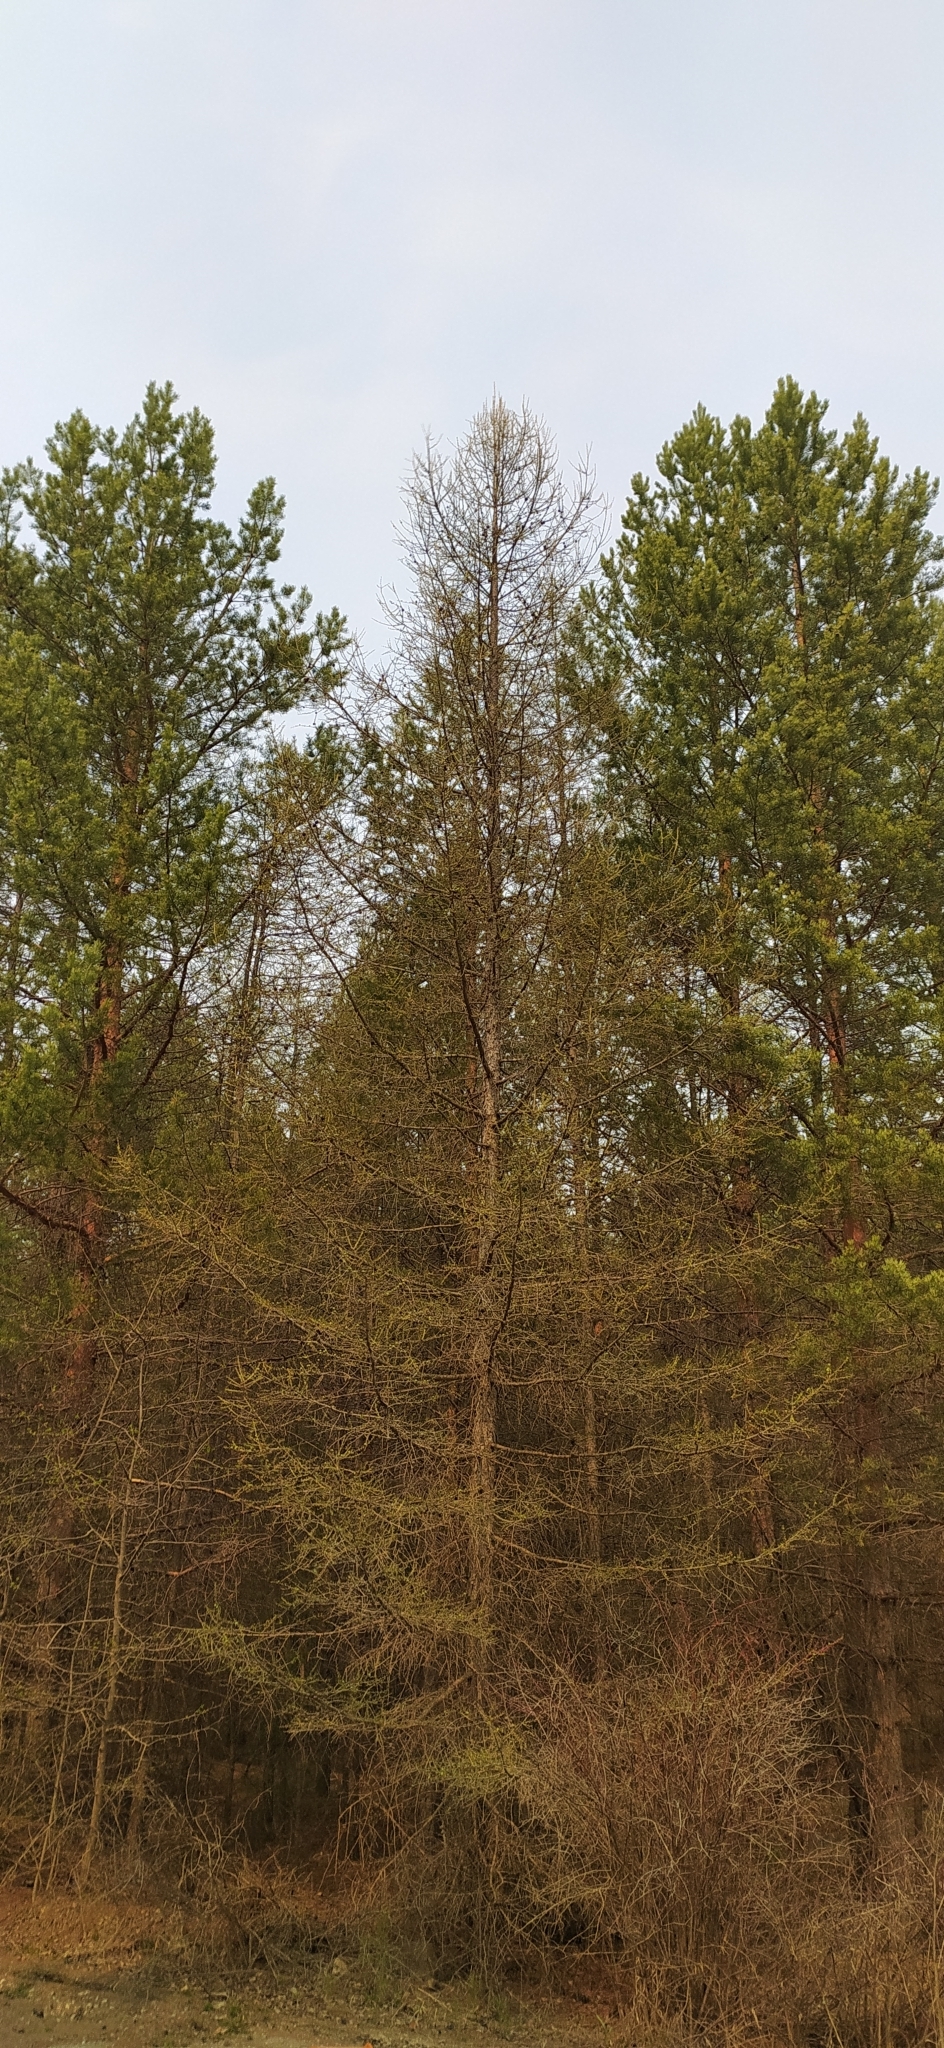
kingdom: Plantae
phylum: Tracheophyta
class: Pinopsida
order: Pinales
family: Pinaceae
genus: Larix
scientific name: Larix sibirica
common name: Siberian larch
